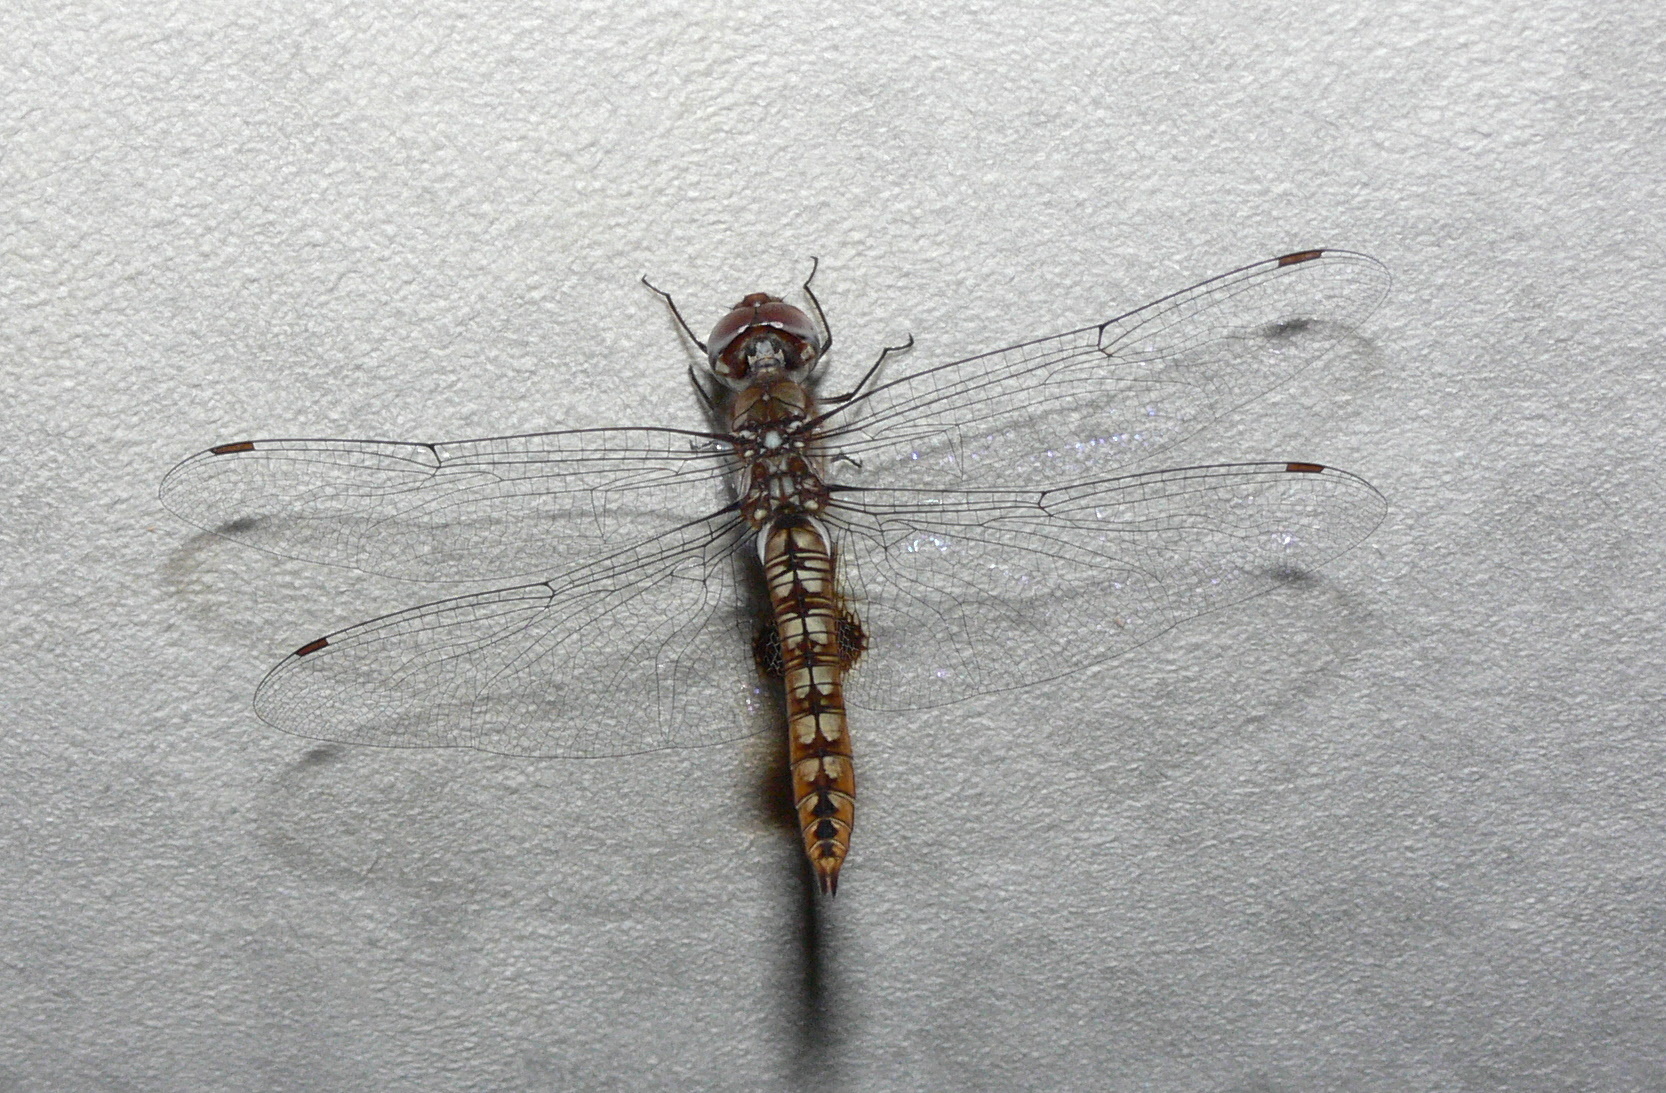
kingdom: Animalia
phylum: Arthropoda
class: Insecta
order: Odonata
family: Libellulidae
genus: Pantala
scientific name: Pantala hymenaea
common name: Spot-winged glider
